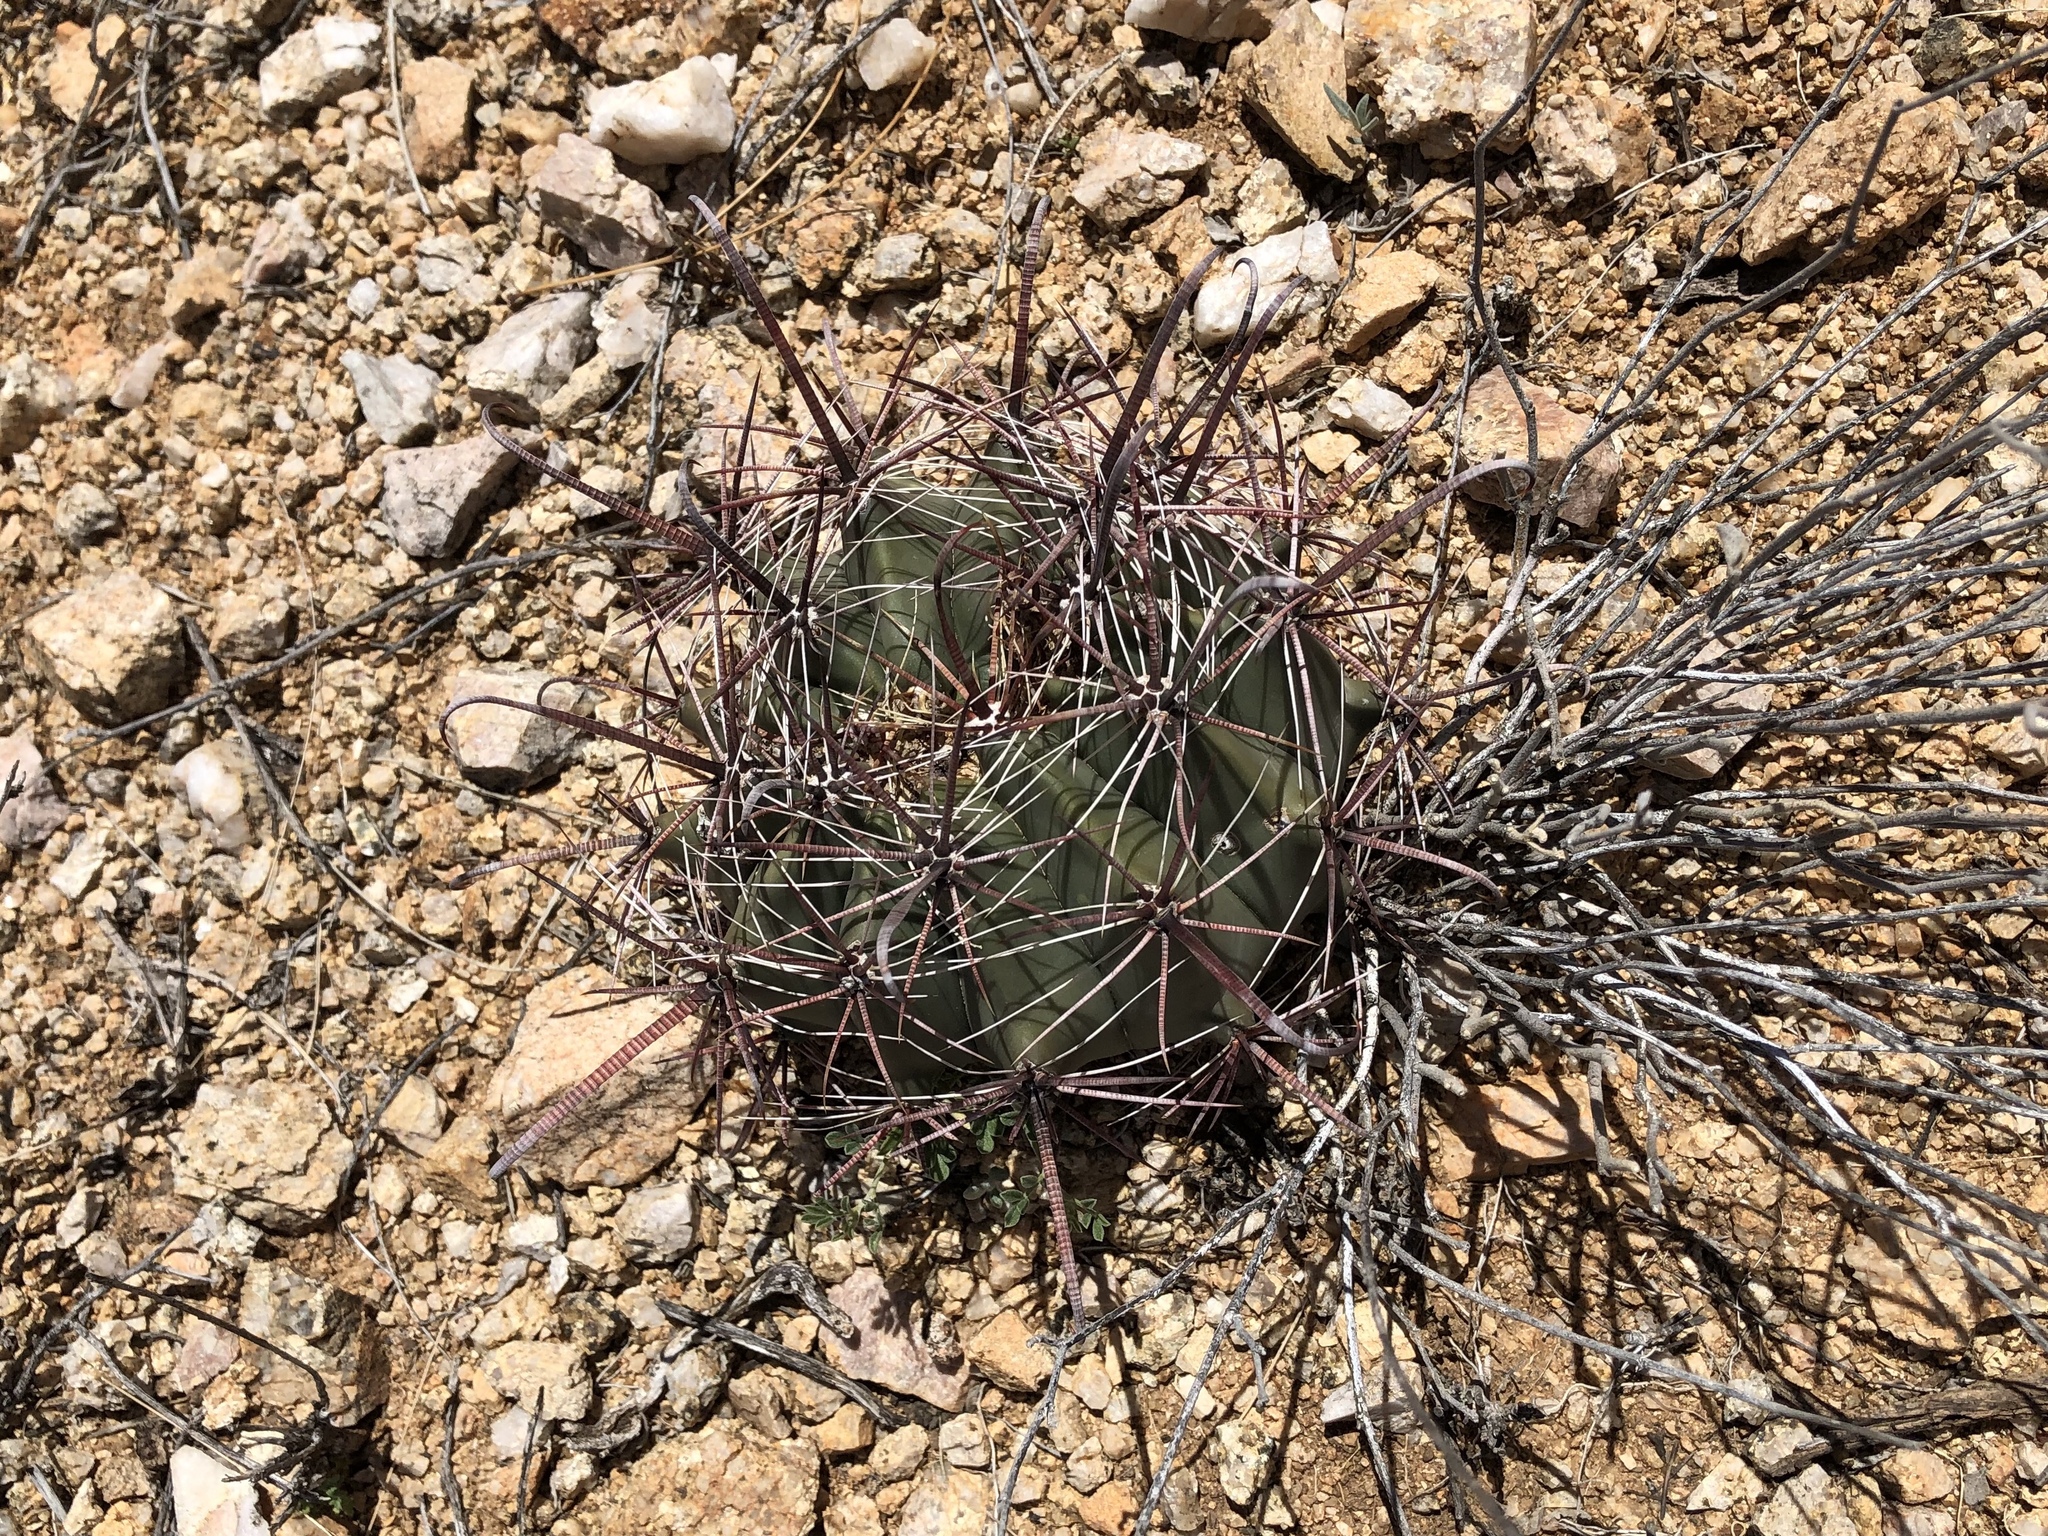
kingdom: Plantae
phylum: Tracheophyta
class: Magnoliopsida
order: Caryophyllales
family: Cactaceae
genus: Ferocactus
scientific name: Ferocactus wislizeni
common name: Candy barrel cactus
